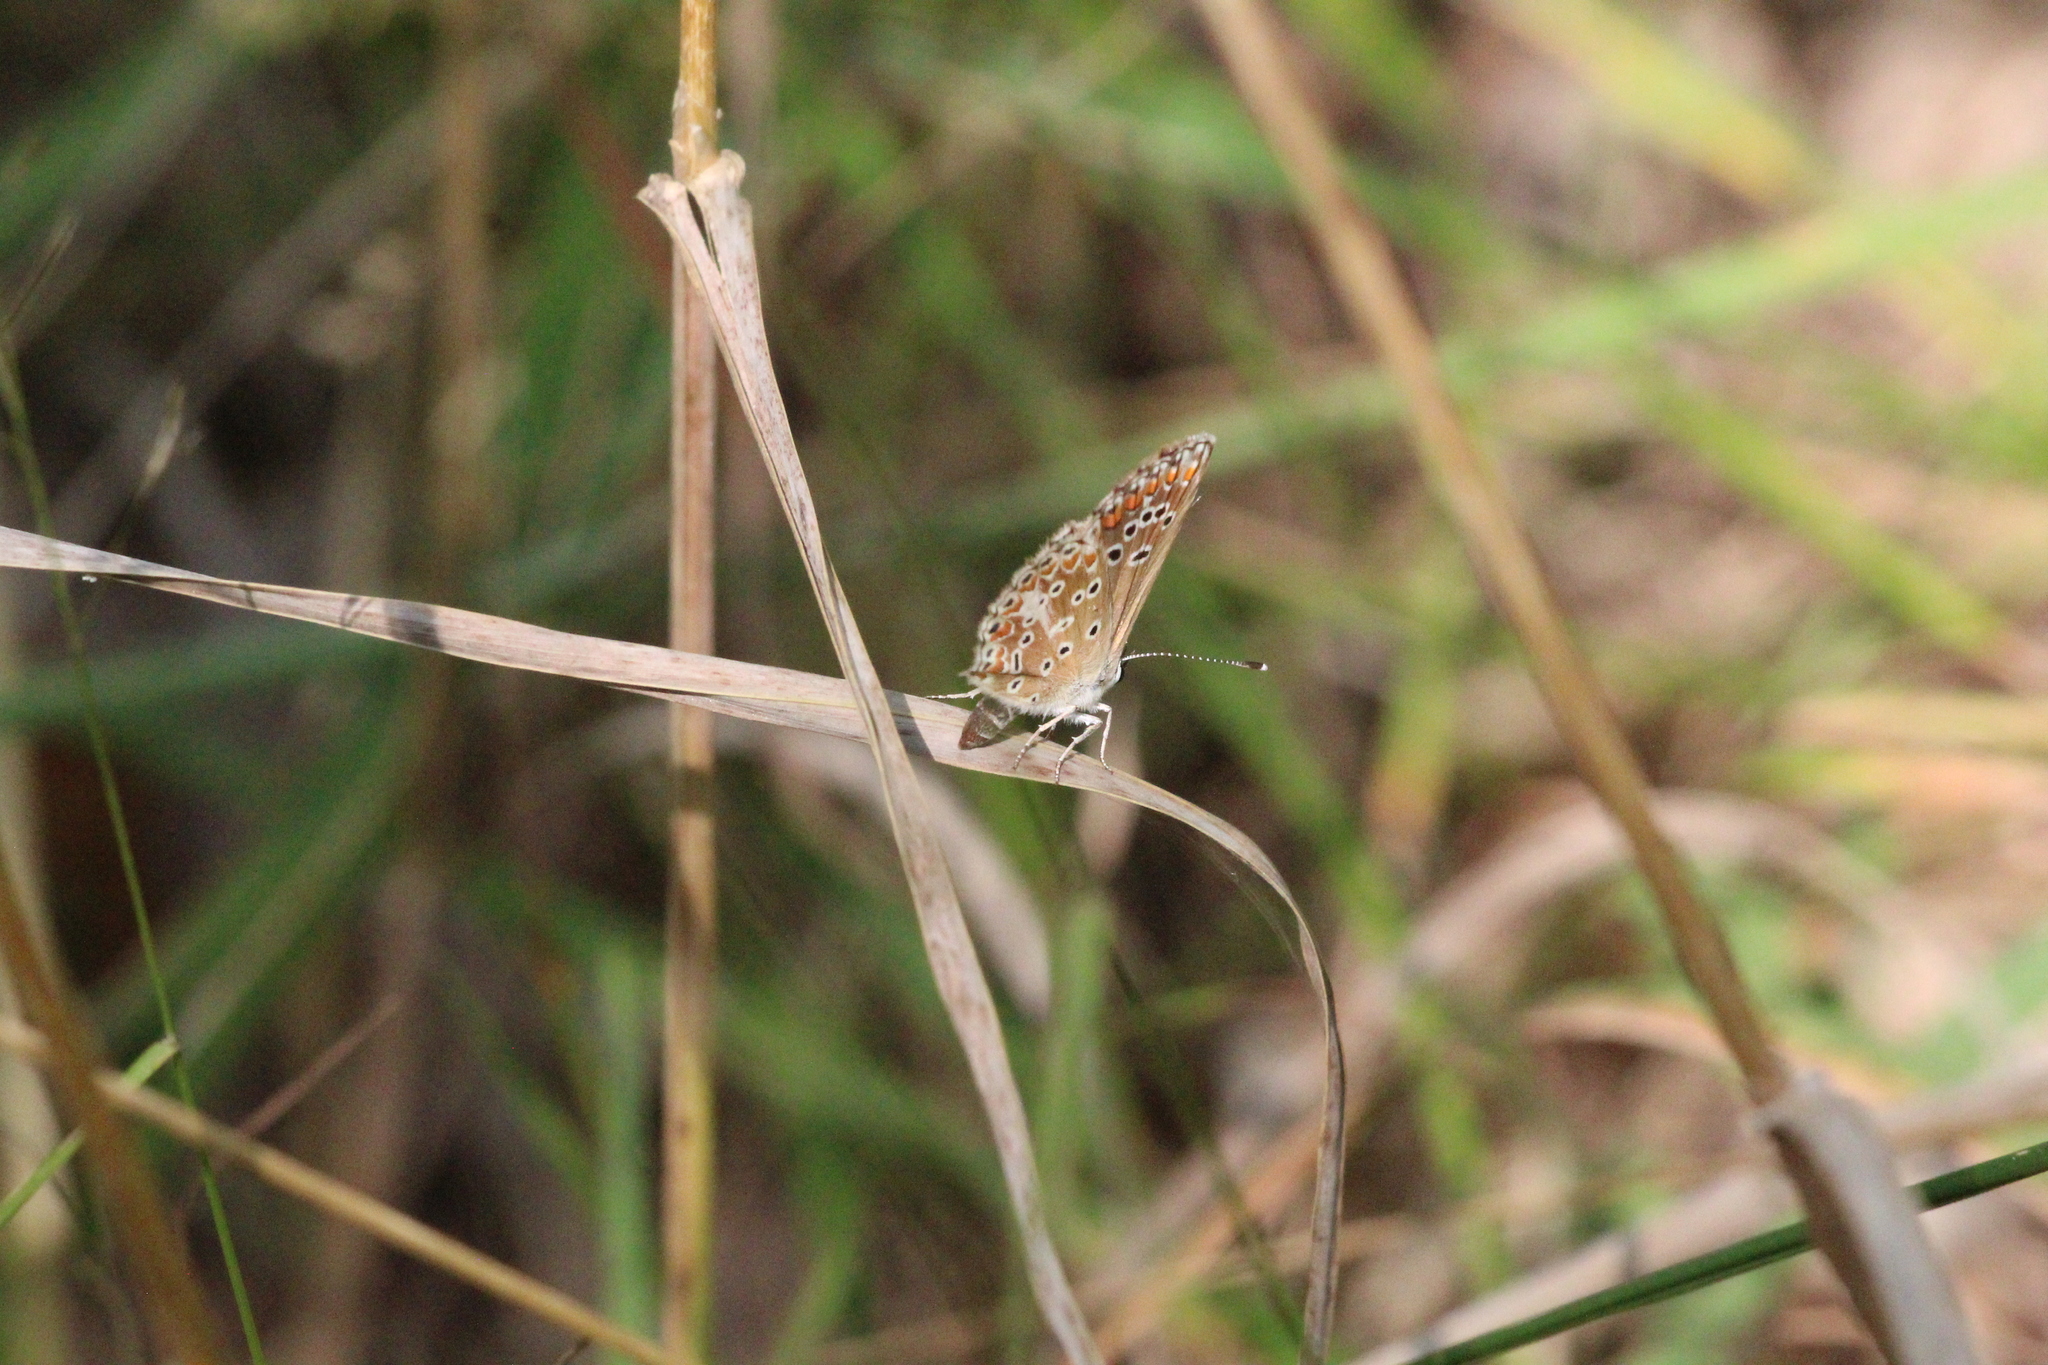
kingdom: Animalia
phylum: Arthropoda
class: Insecta
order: Lepidoptera
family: Lycaenidae
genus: Aricia
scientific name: Aricia agestis
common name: Brown argus
